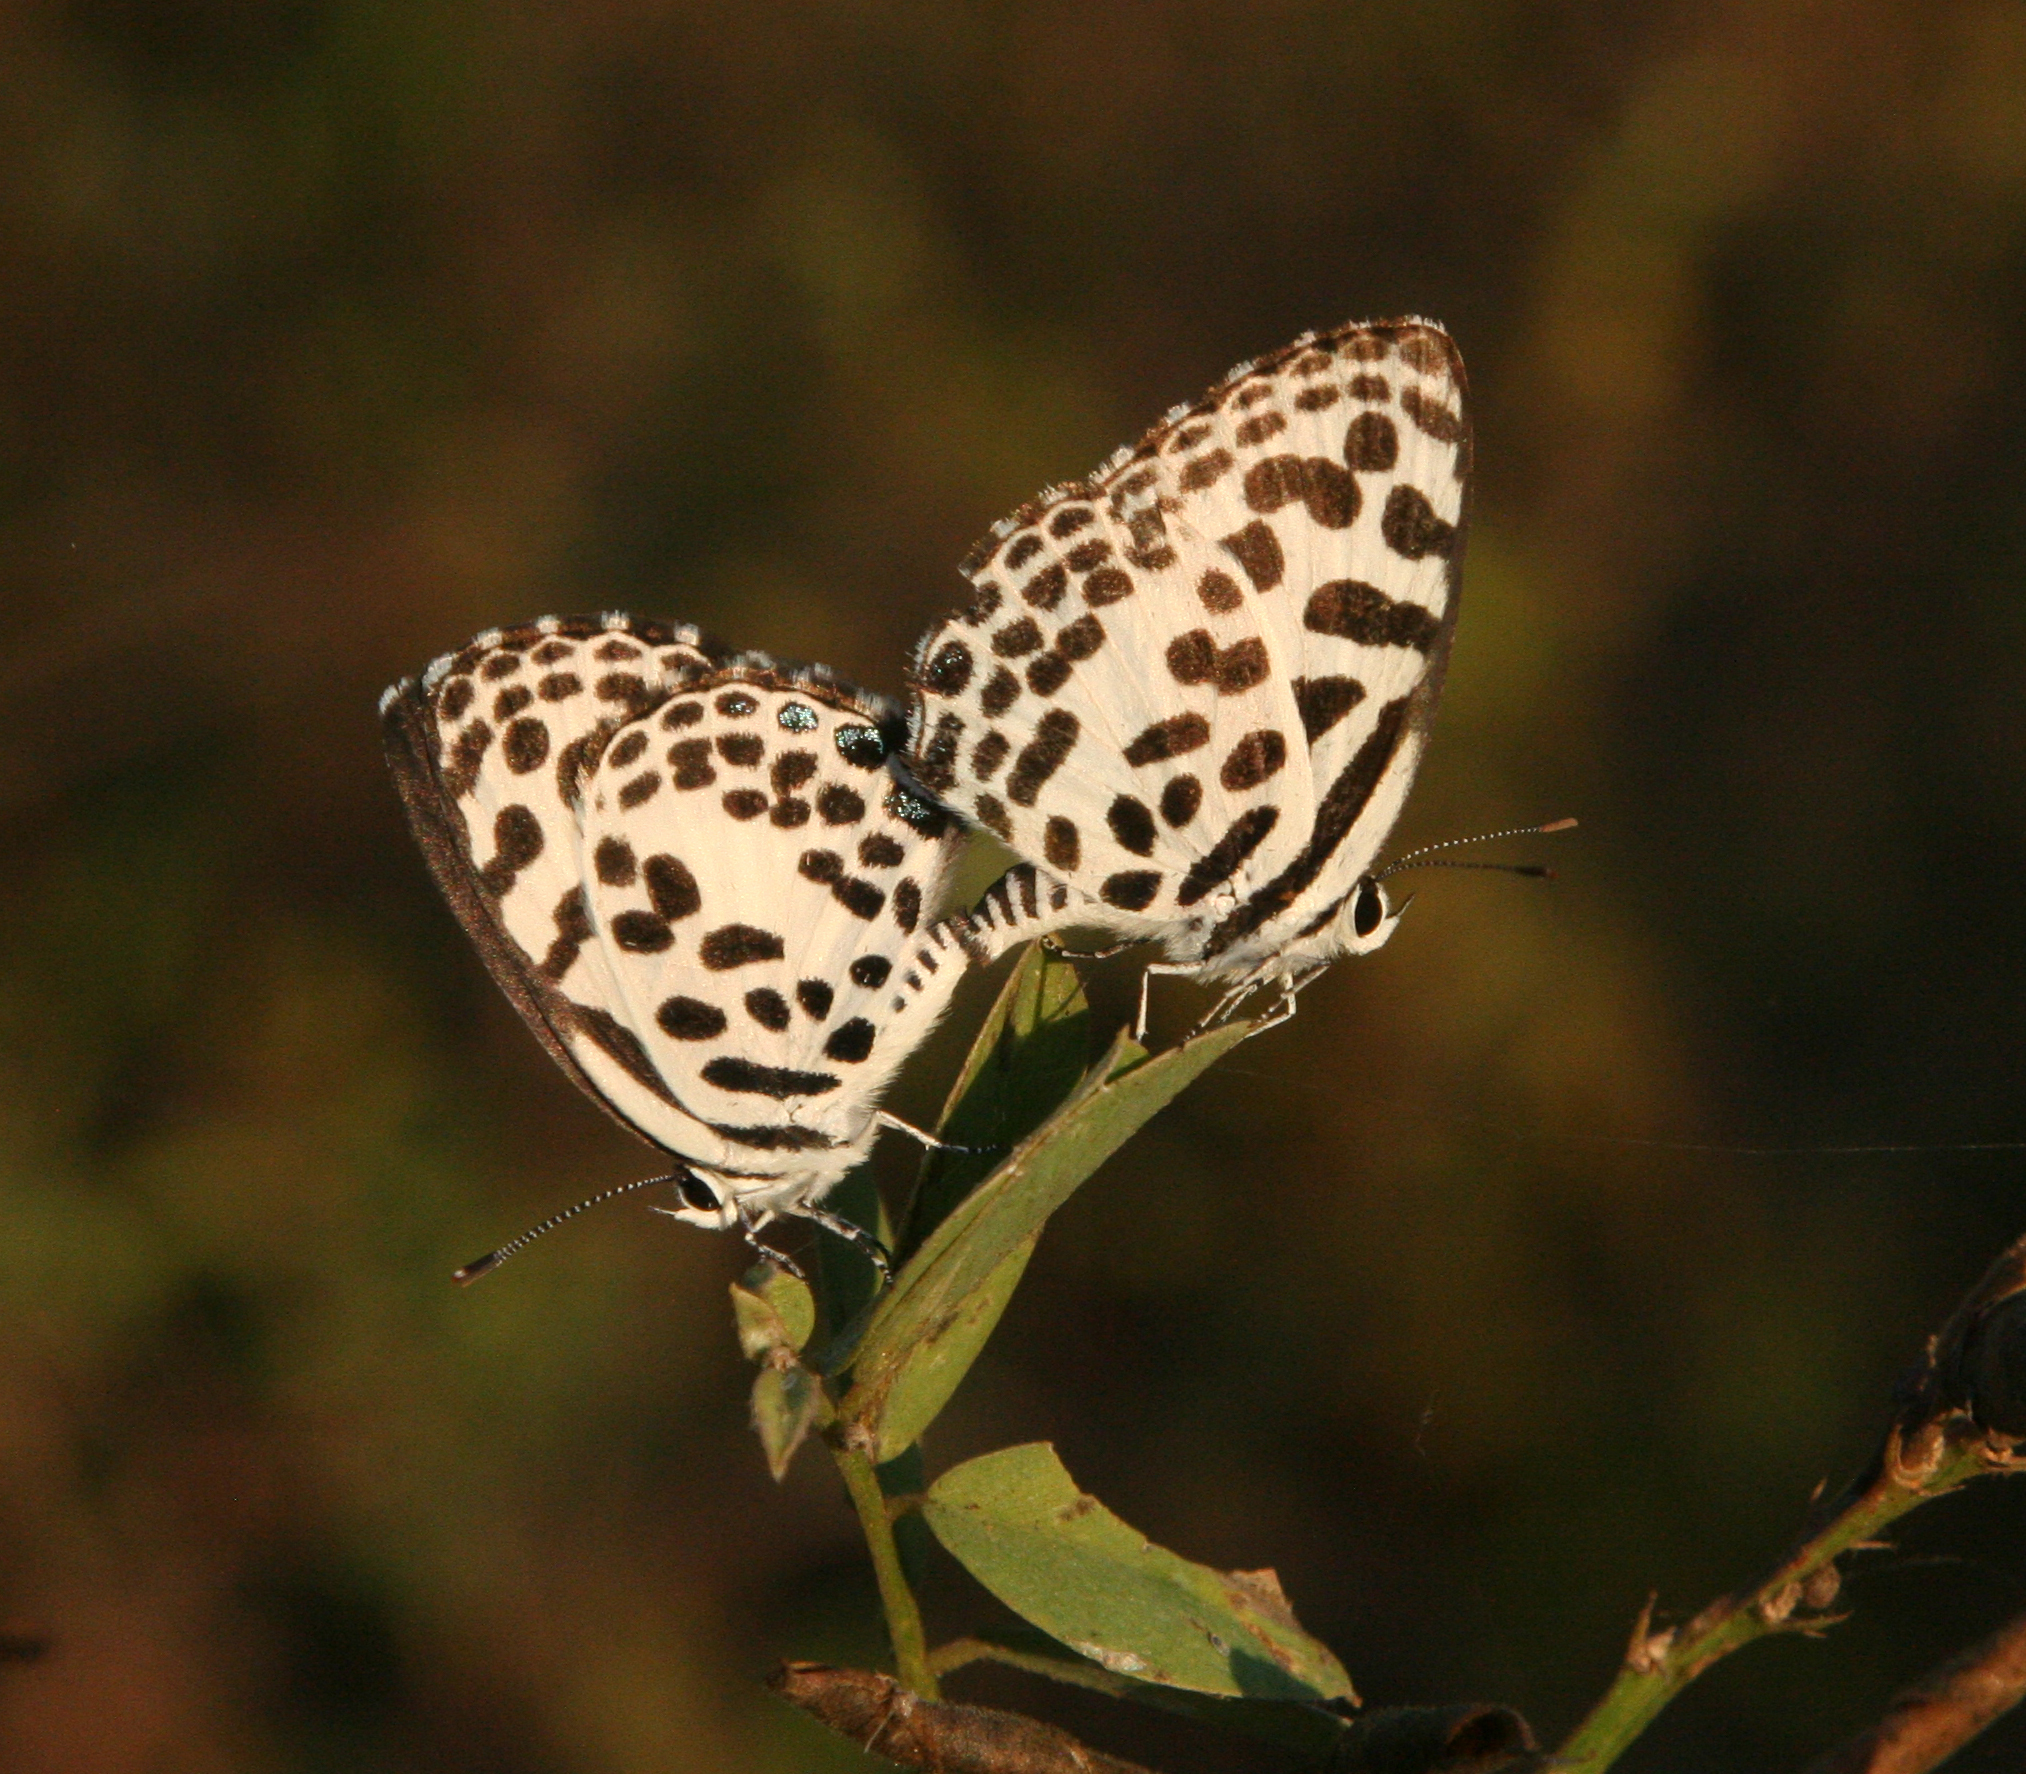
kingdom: Animalia
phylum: Arthropoda
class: Insecta
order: Lepidoptera
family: Lycaenidae
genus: Castalius
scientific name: Castalius rosimon
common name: Common pierrot
